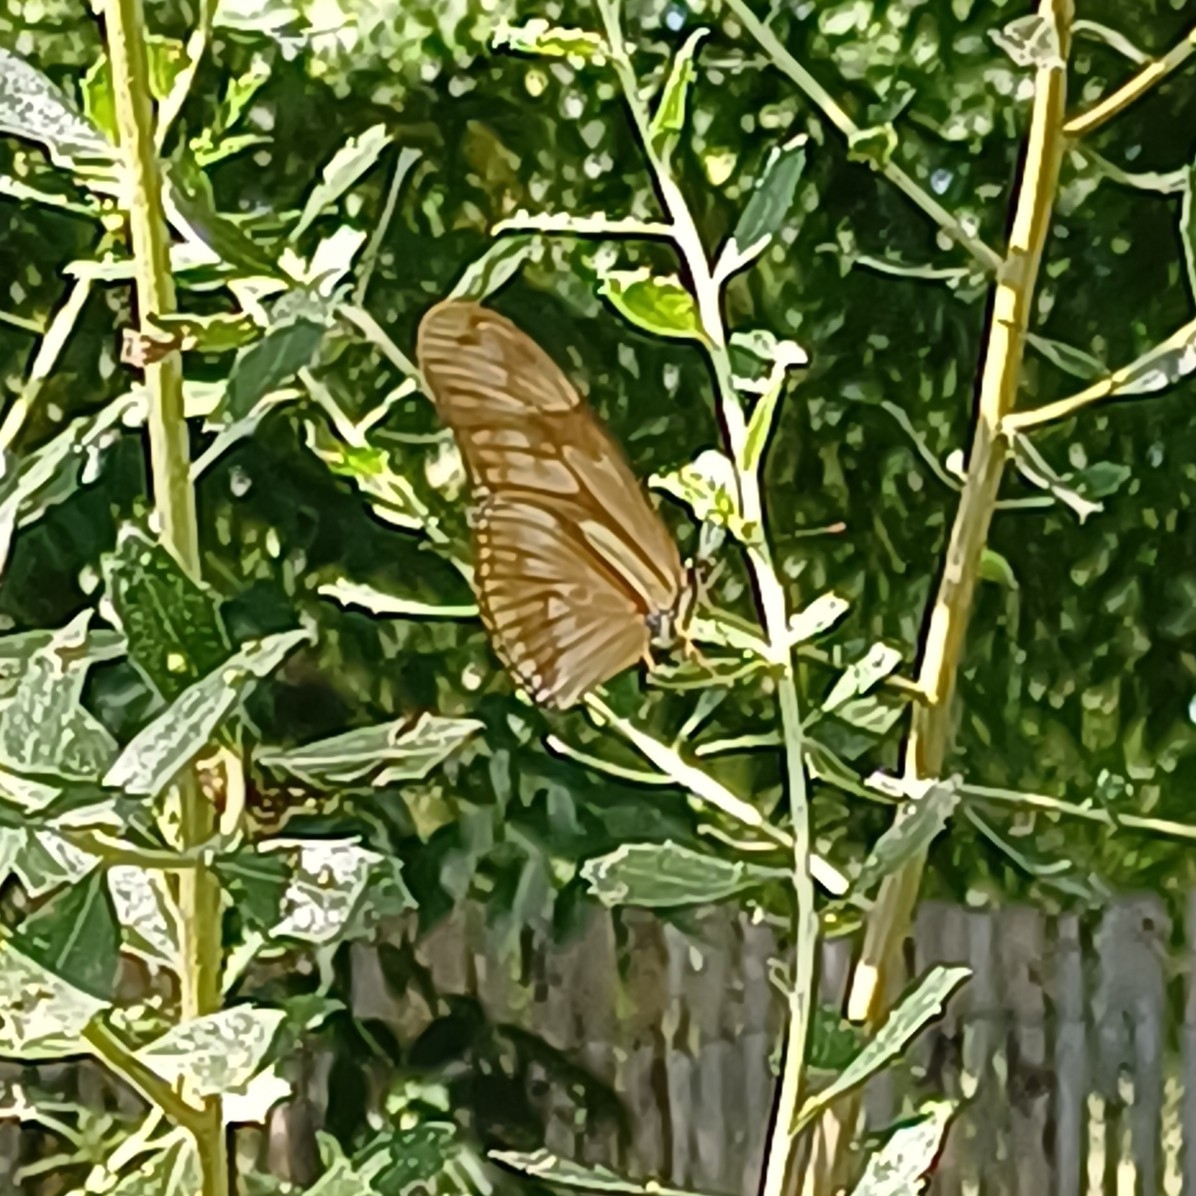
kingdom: Animalia
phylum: Arthropoda
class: Insecta
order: Lepidoptera
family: Nymphalidae
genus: Dryas
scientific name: Dryas iulia
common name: Flambeau
